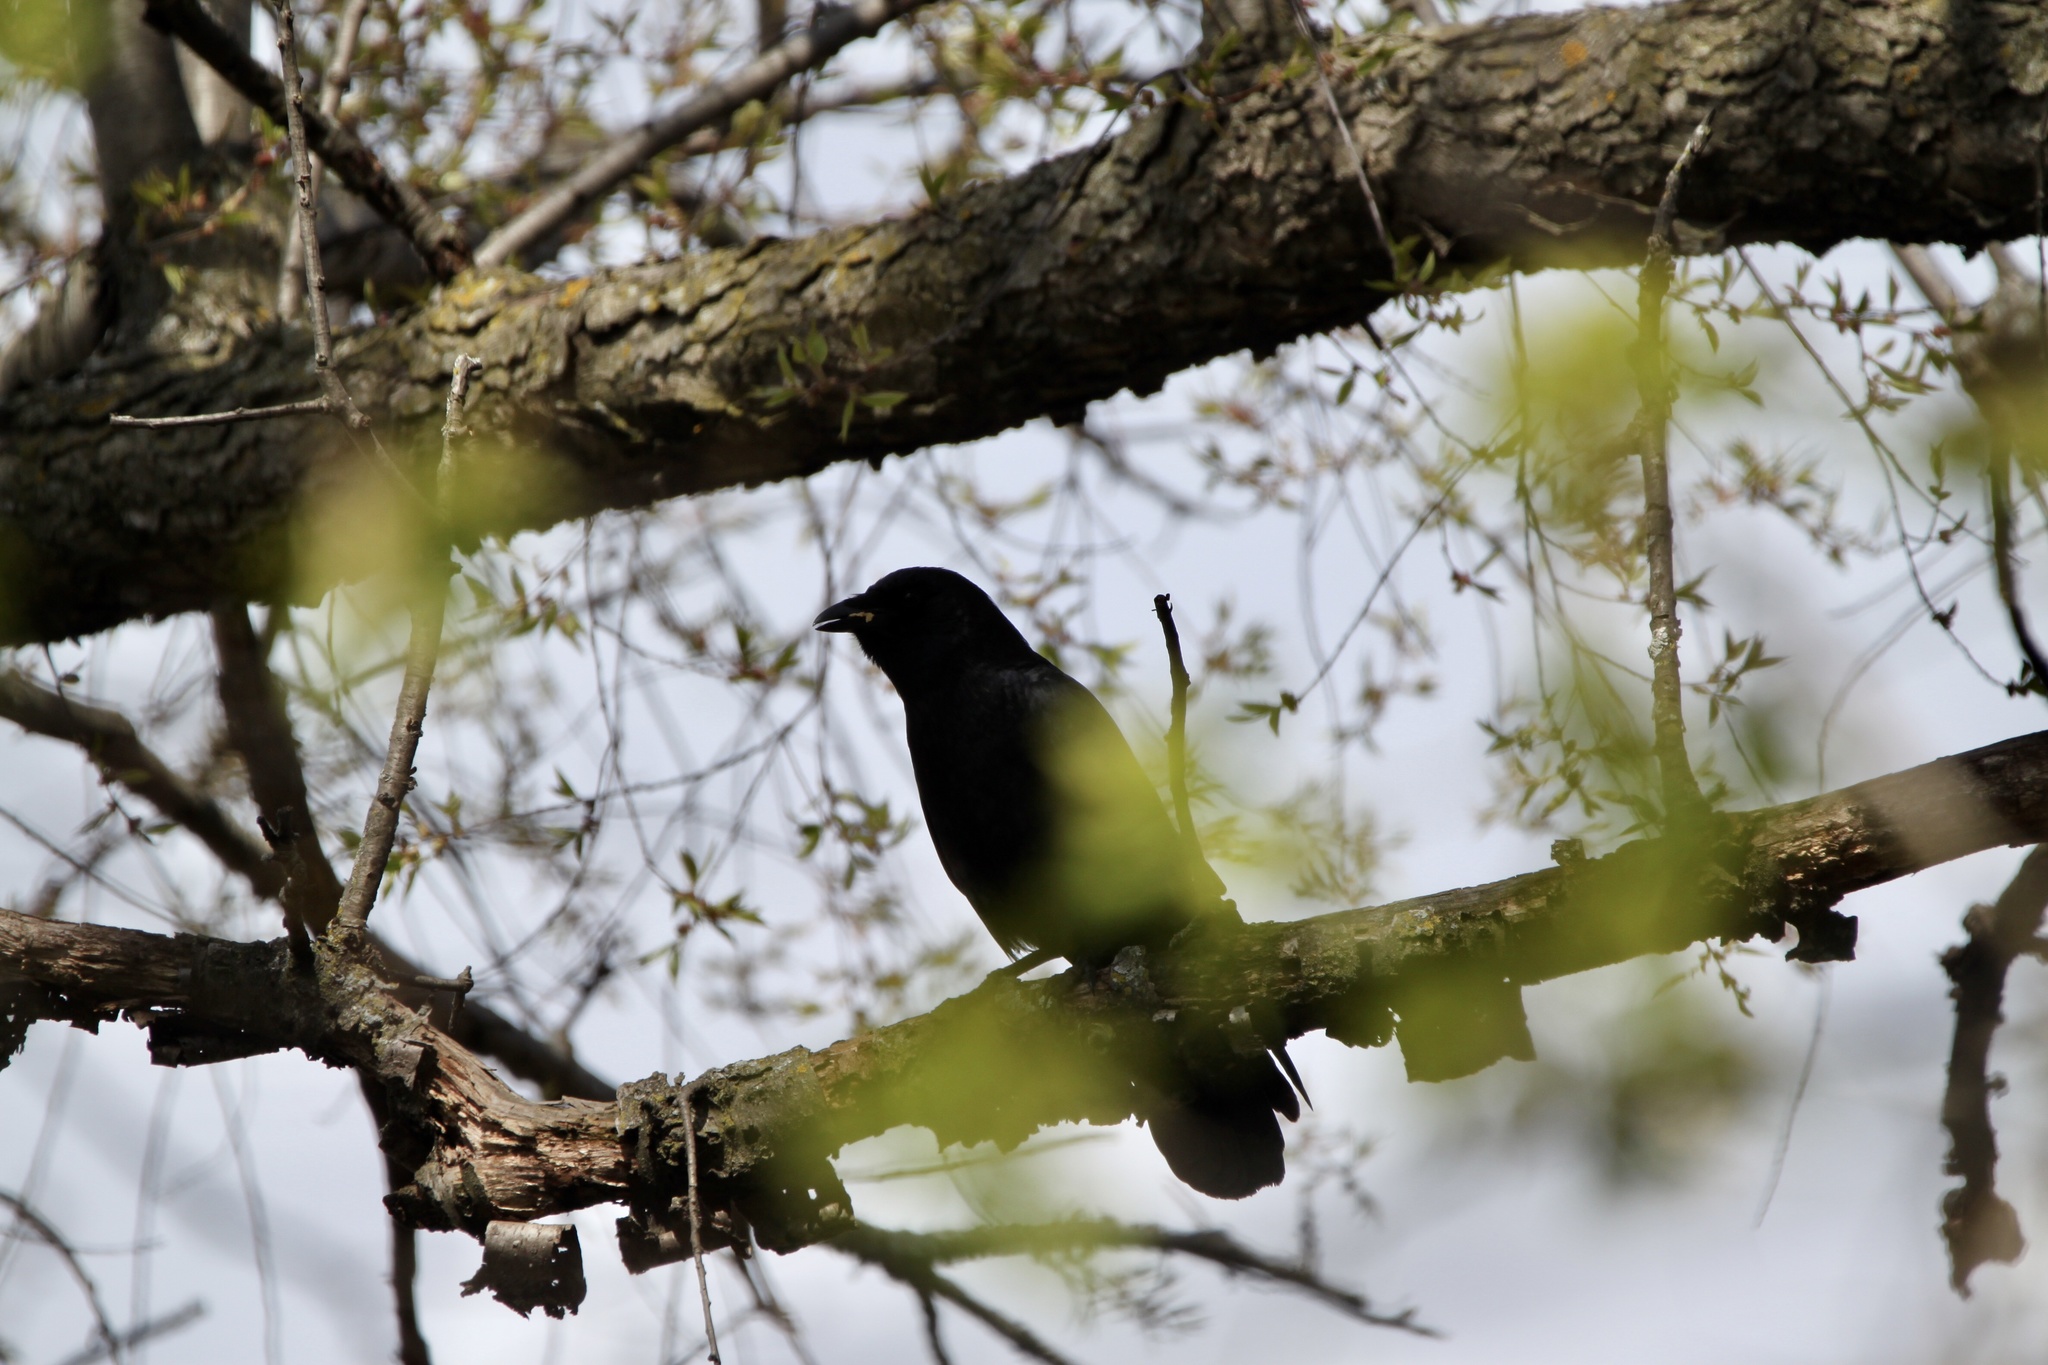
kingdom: Animalia
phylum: Chordata
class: Aves
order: Passeriformes
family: Corvidae
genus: Corvus
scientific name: Corvus brachyrhynchos
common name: American crow
